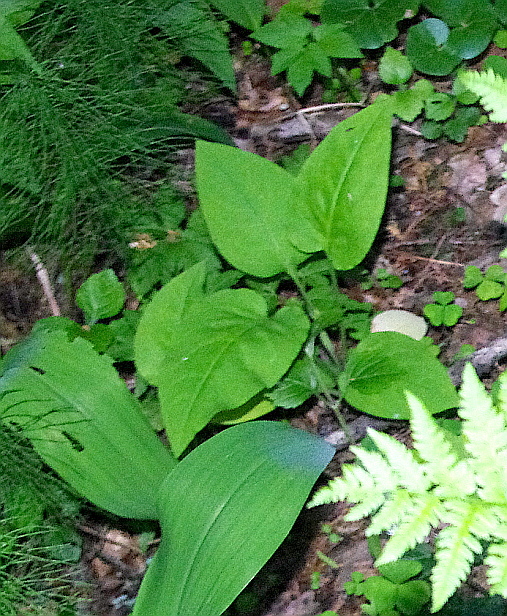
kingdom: Plantae
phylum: Tracheophyta
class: Magnoliopsida
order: Boraginales
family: Boraginaceae
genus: Pulmonaria
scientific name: Pulmonaria obscura
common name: Suffolk lungwort
